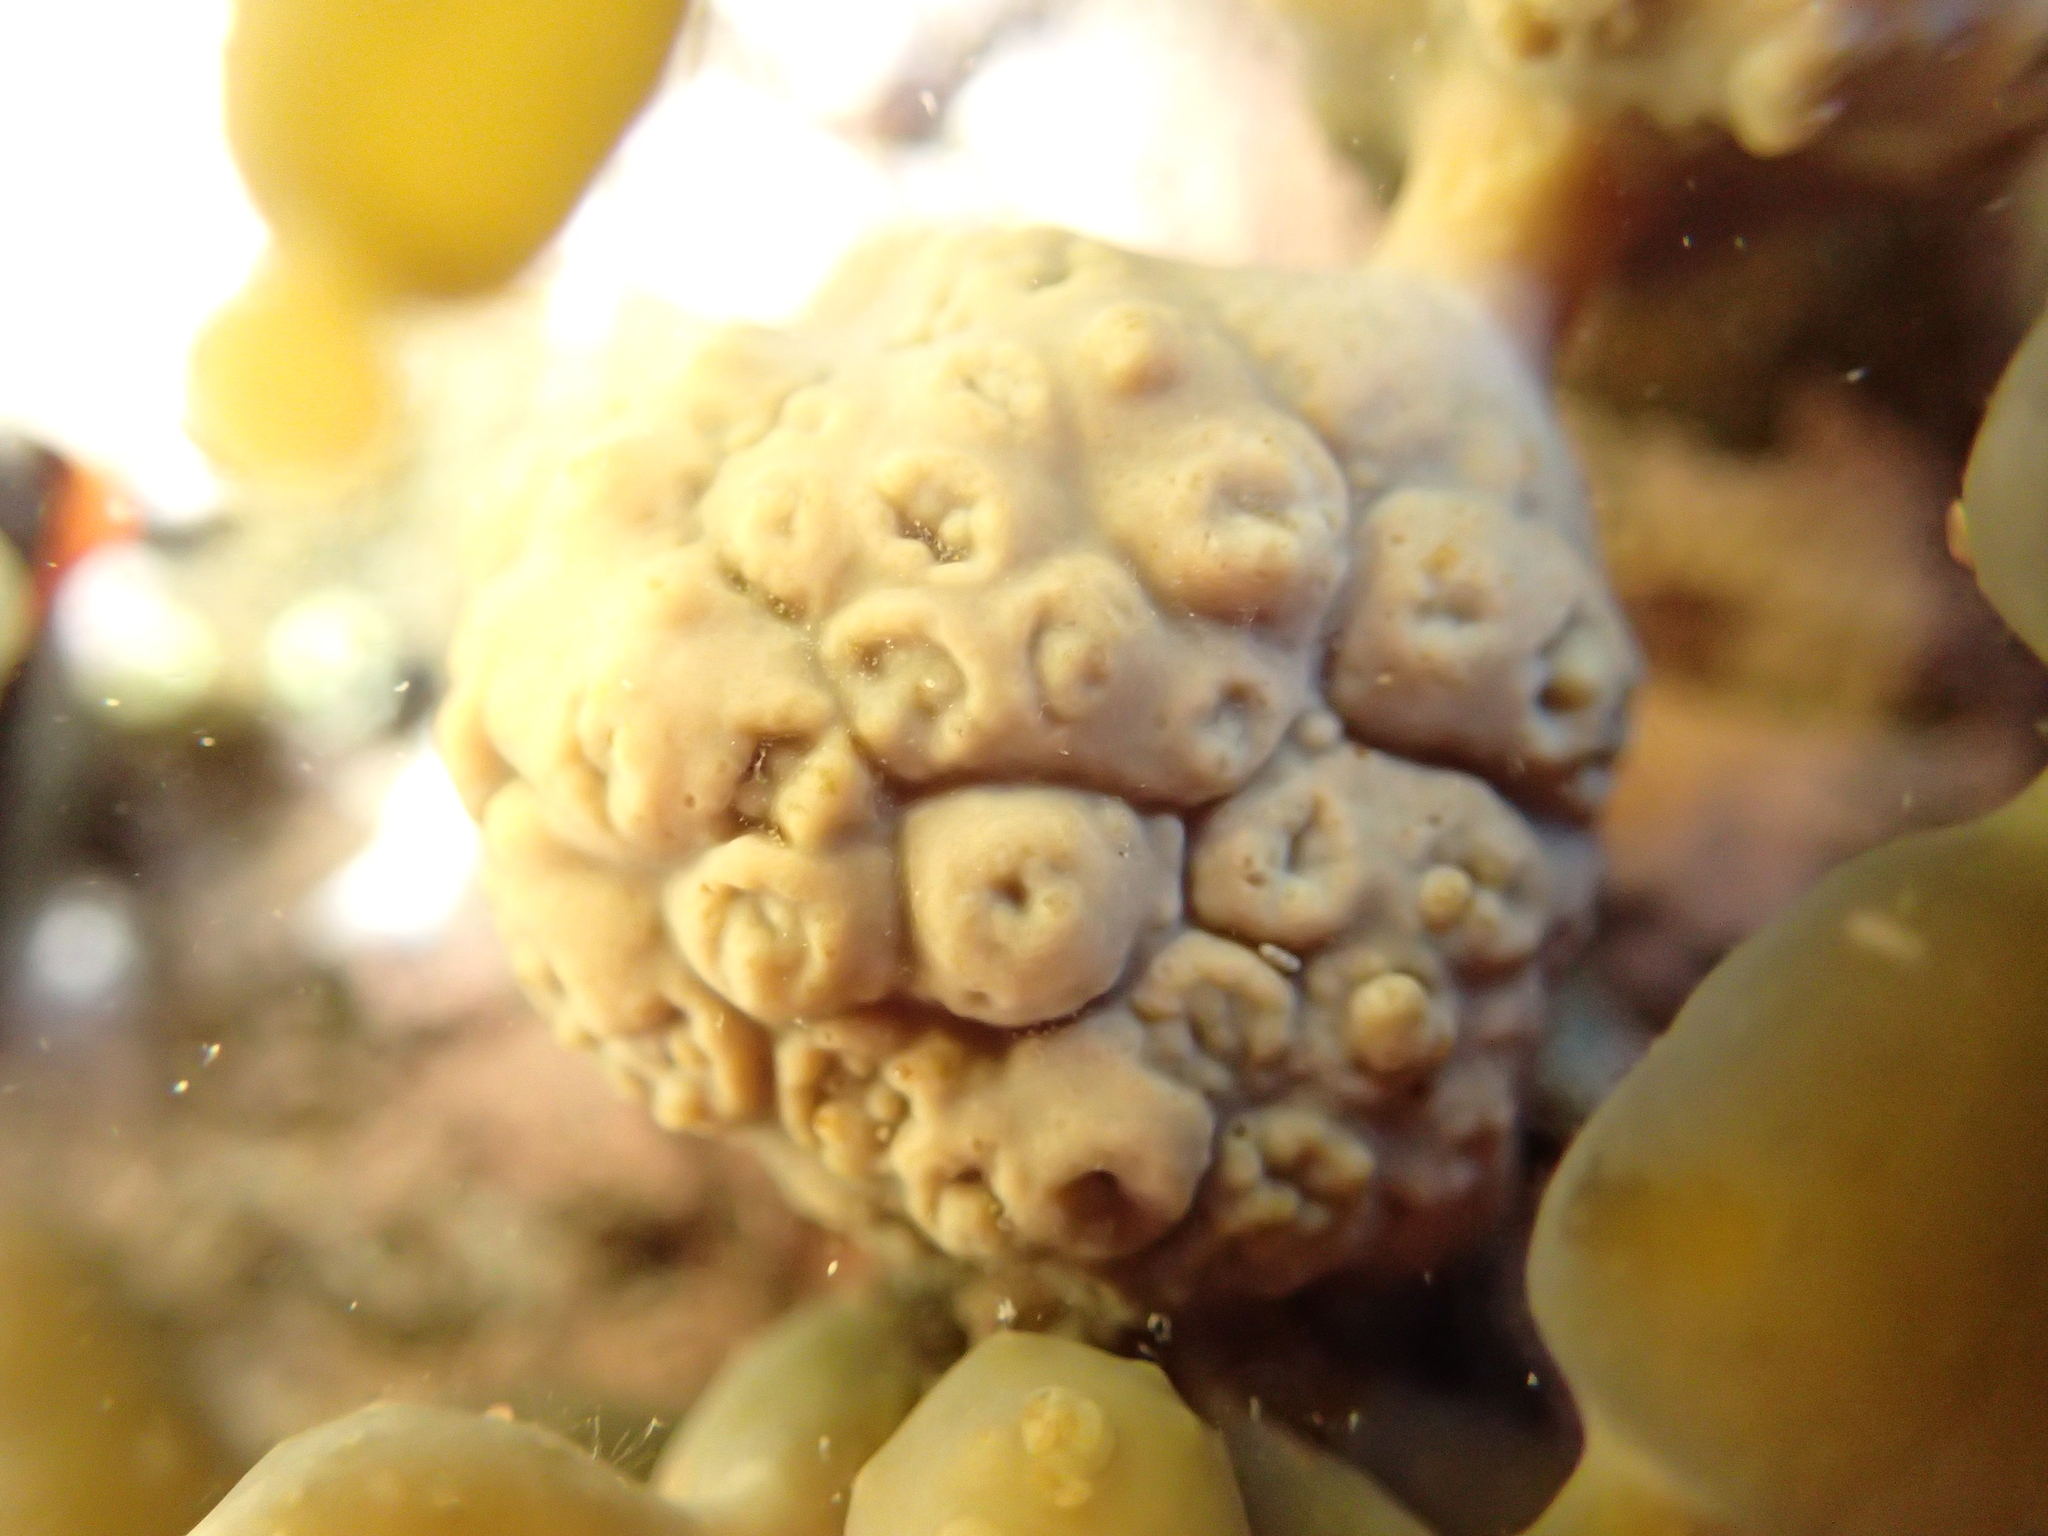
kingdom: Chromista
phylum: Ochrophyta
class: Phaeophyceae
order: Fucales
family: Hormosiraceae
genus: Hormosira
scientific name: Hormosira banksii
